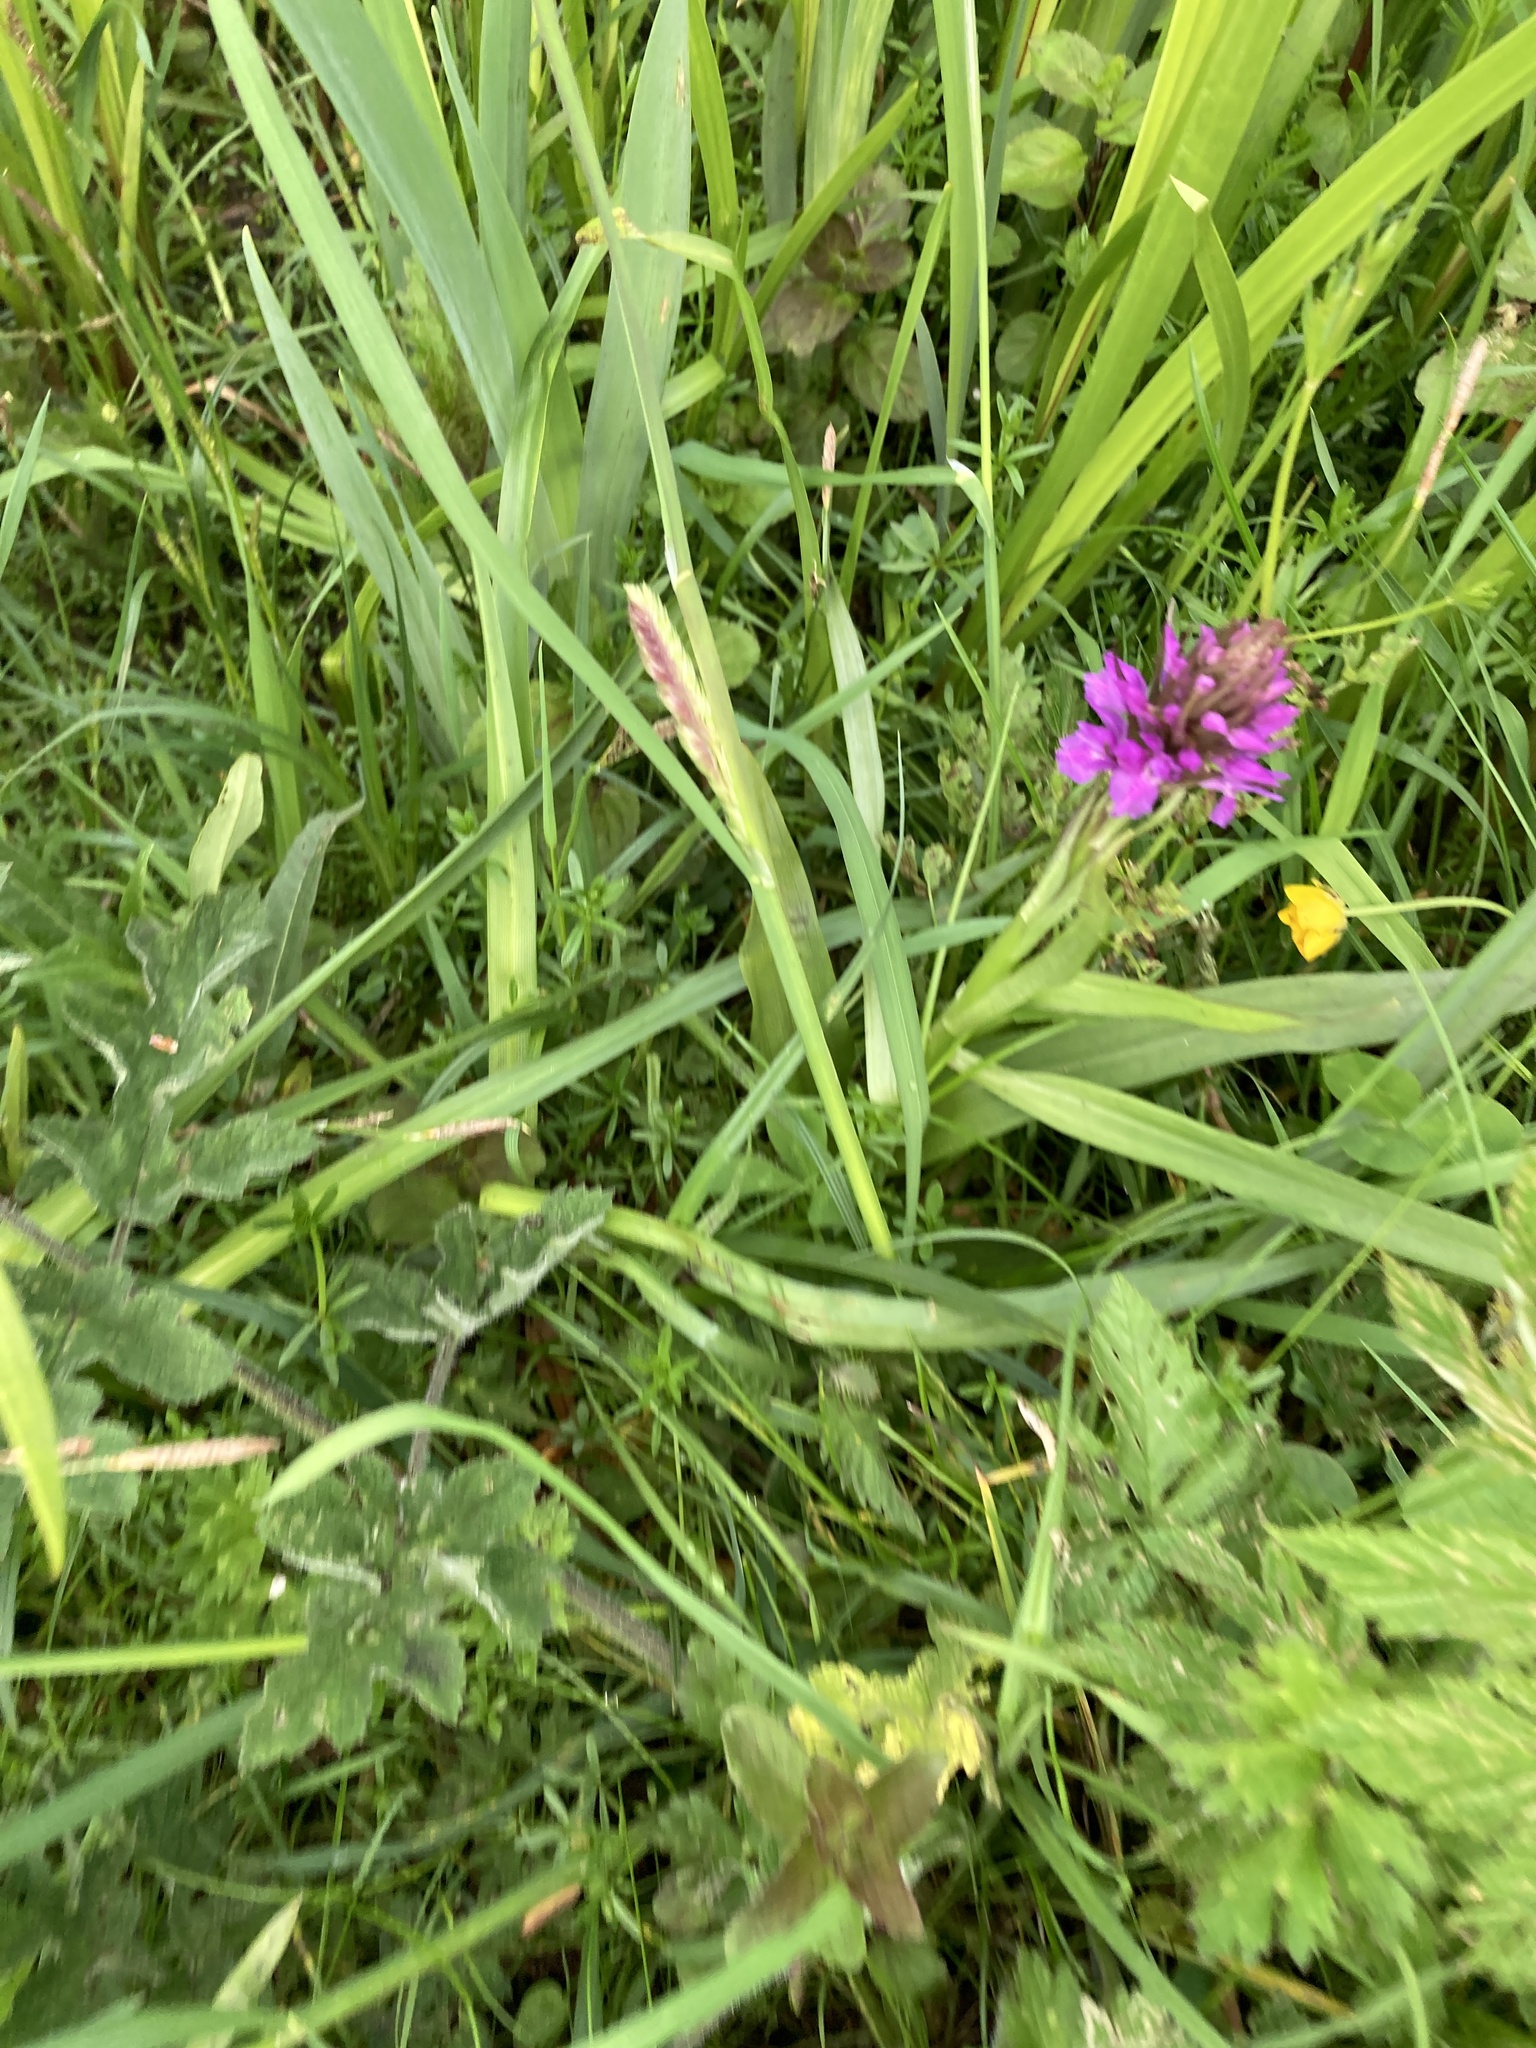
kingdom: Plantae
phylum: Tracheophyta
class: Liliopsida
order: Asparagales
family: Orchidaceae
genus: Dactylorhiza
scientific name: Dactylorhiza majalis
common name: Marsh orchid
